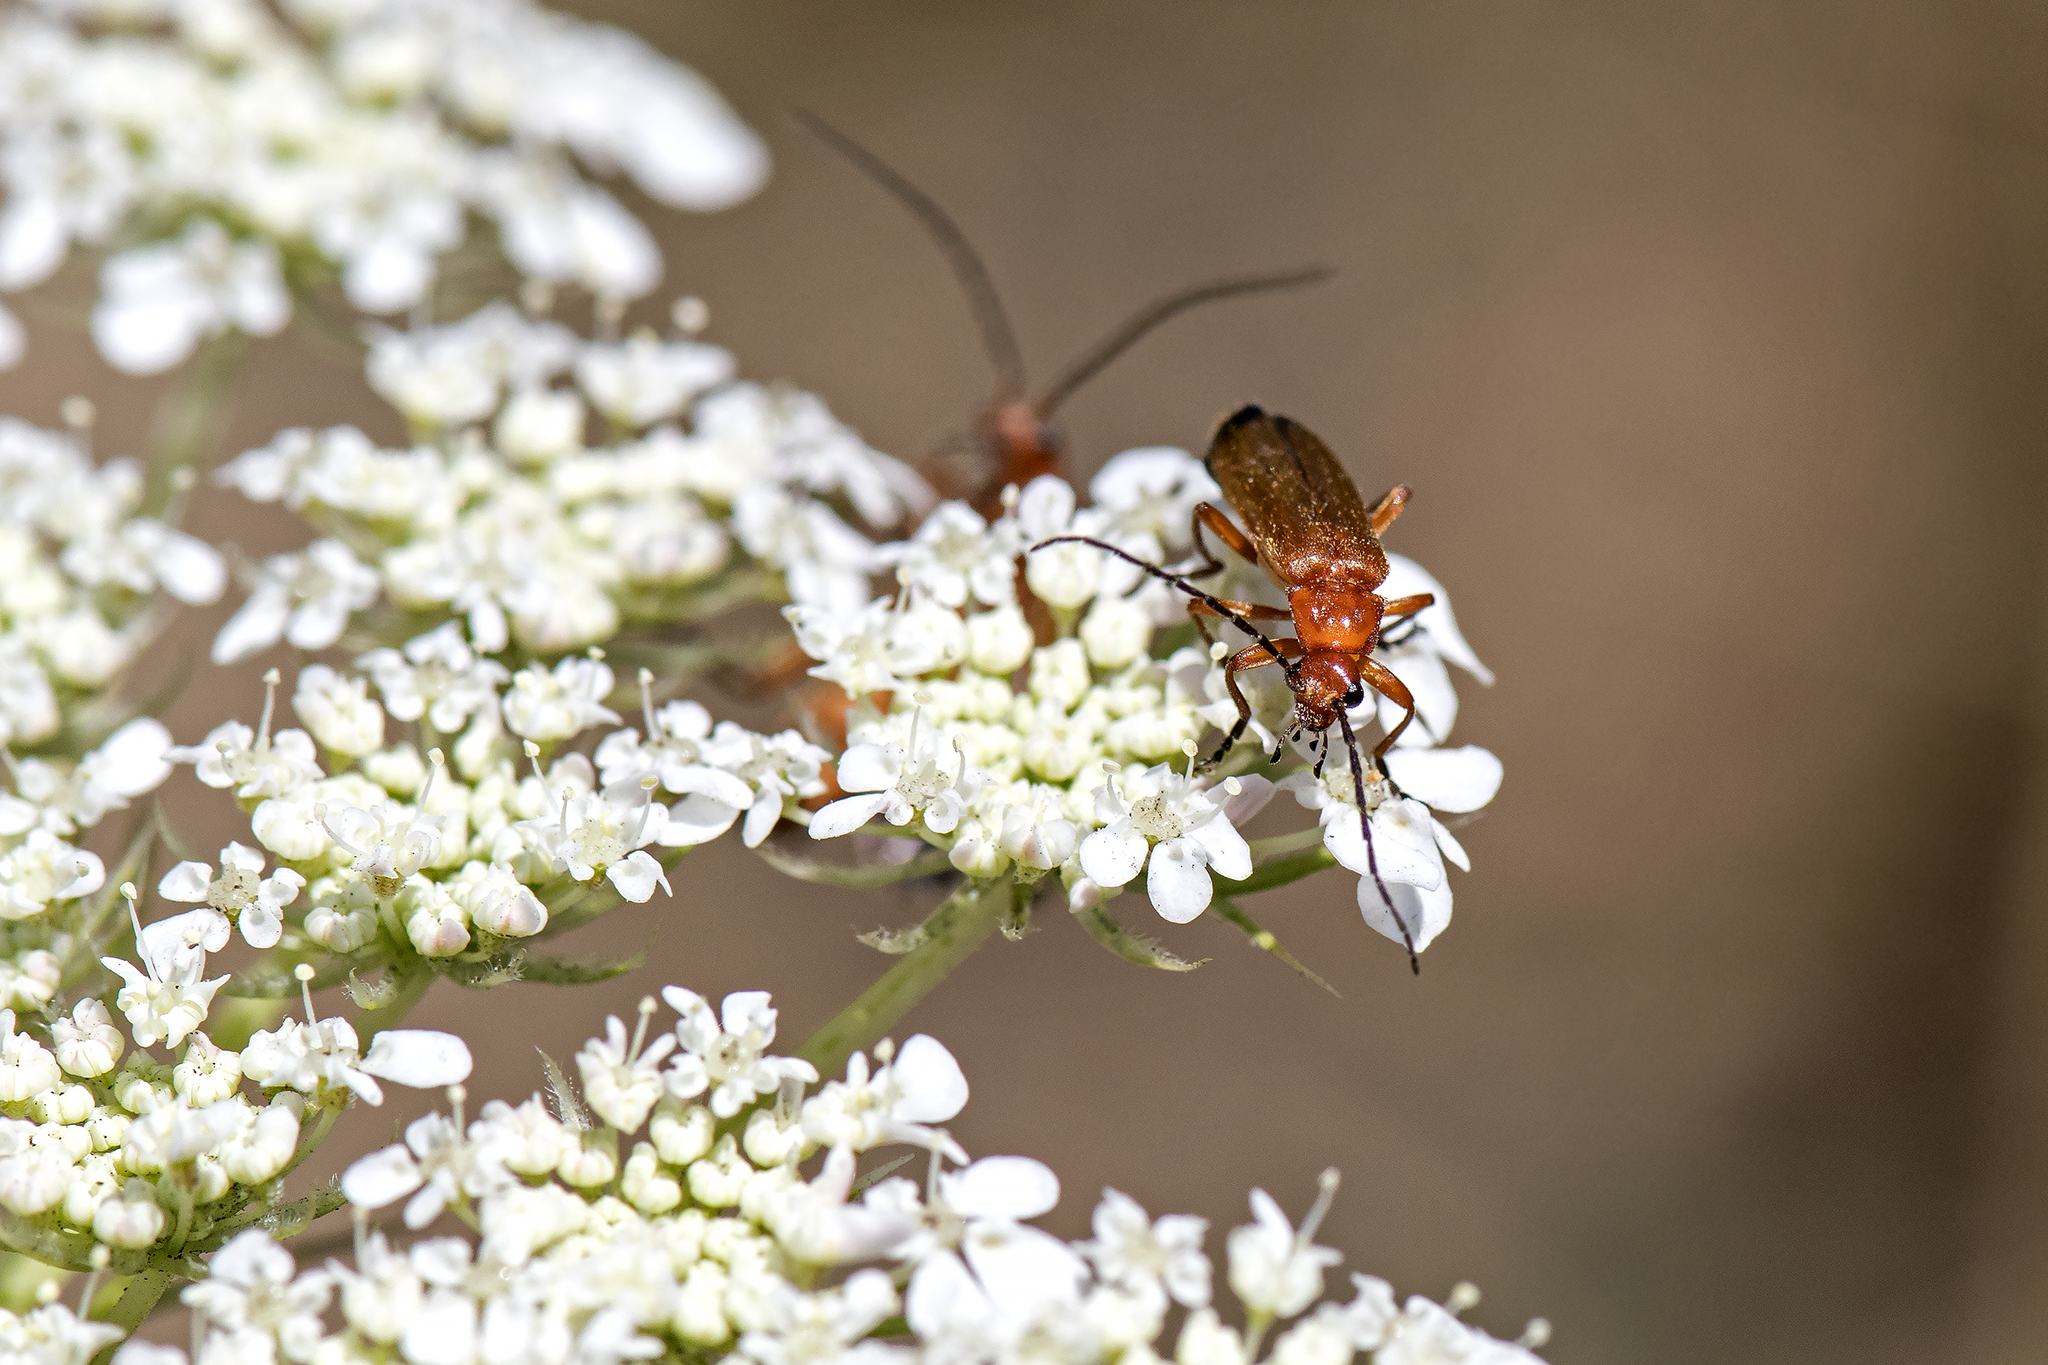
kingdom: Animalia
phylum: Arthropoda
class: Insecta
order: Coleoptera
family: Cantharidae
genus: Rhagonycha
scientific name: Rhagonycha fulva
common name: Common red soldier beetle
